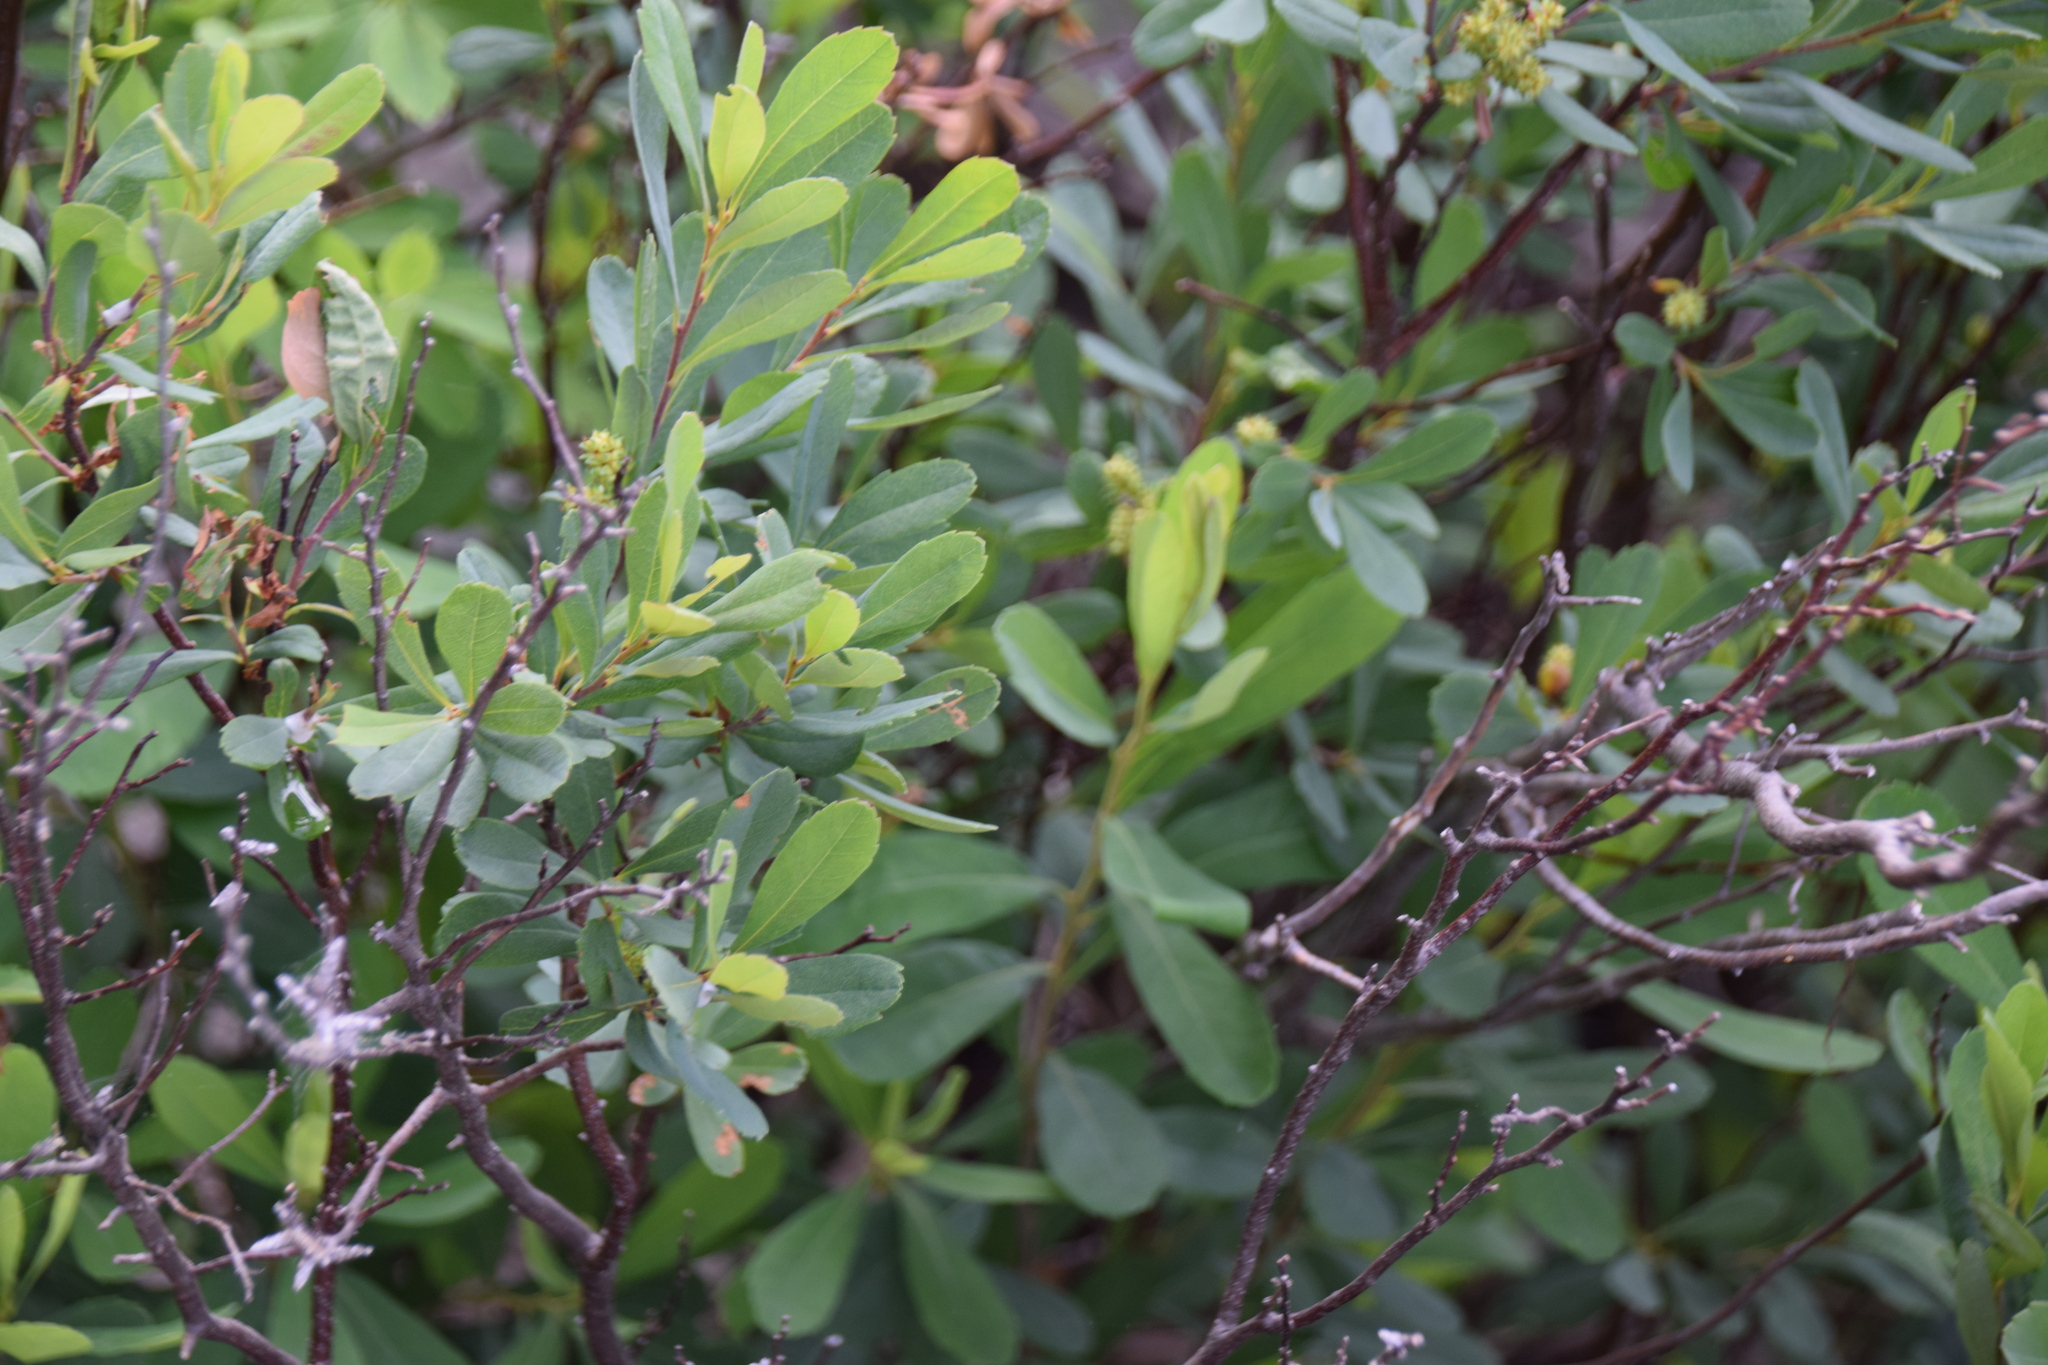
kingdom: Plantae
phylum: Tracheophyta
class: Magnoliopsida
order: Fagales
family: Myricaceae
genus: Myrica
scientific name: Myrica gale
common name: Sweet gale
